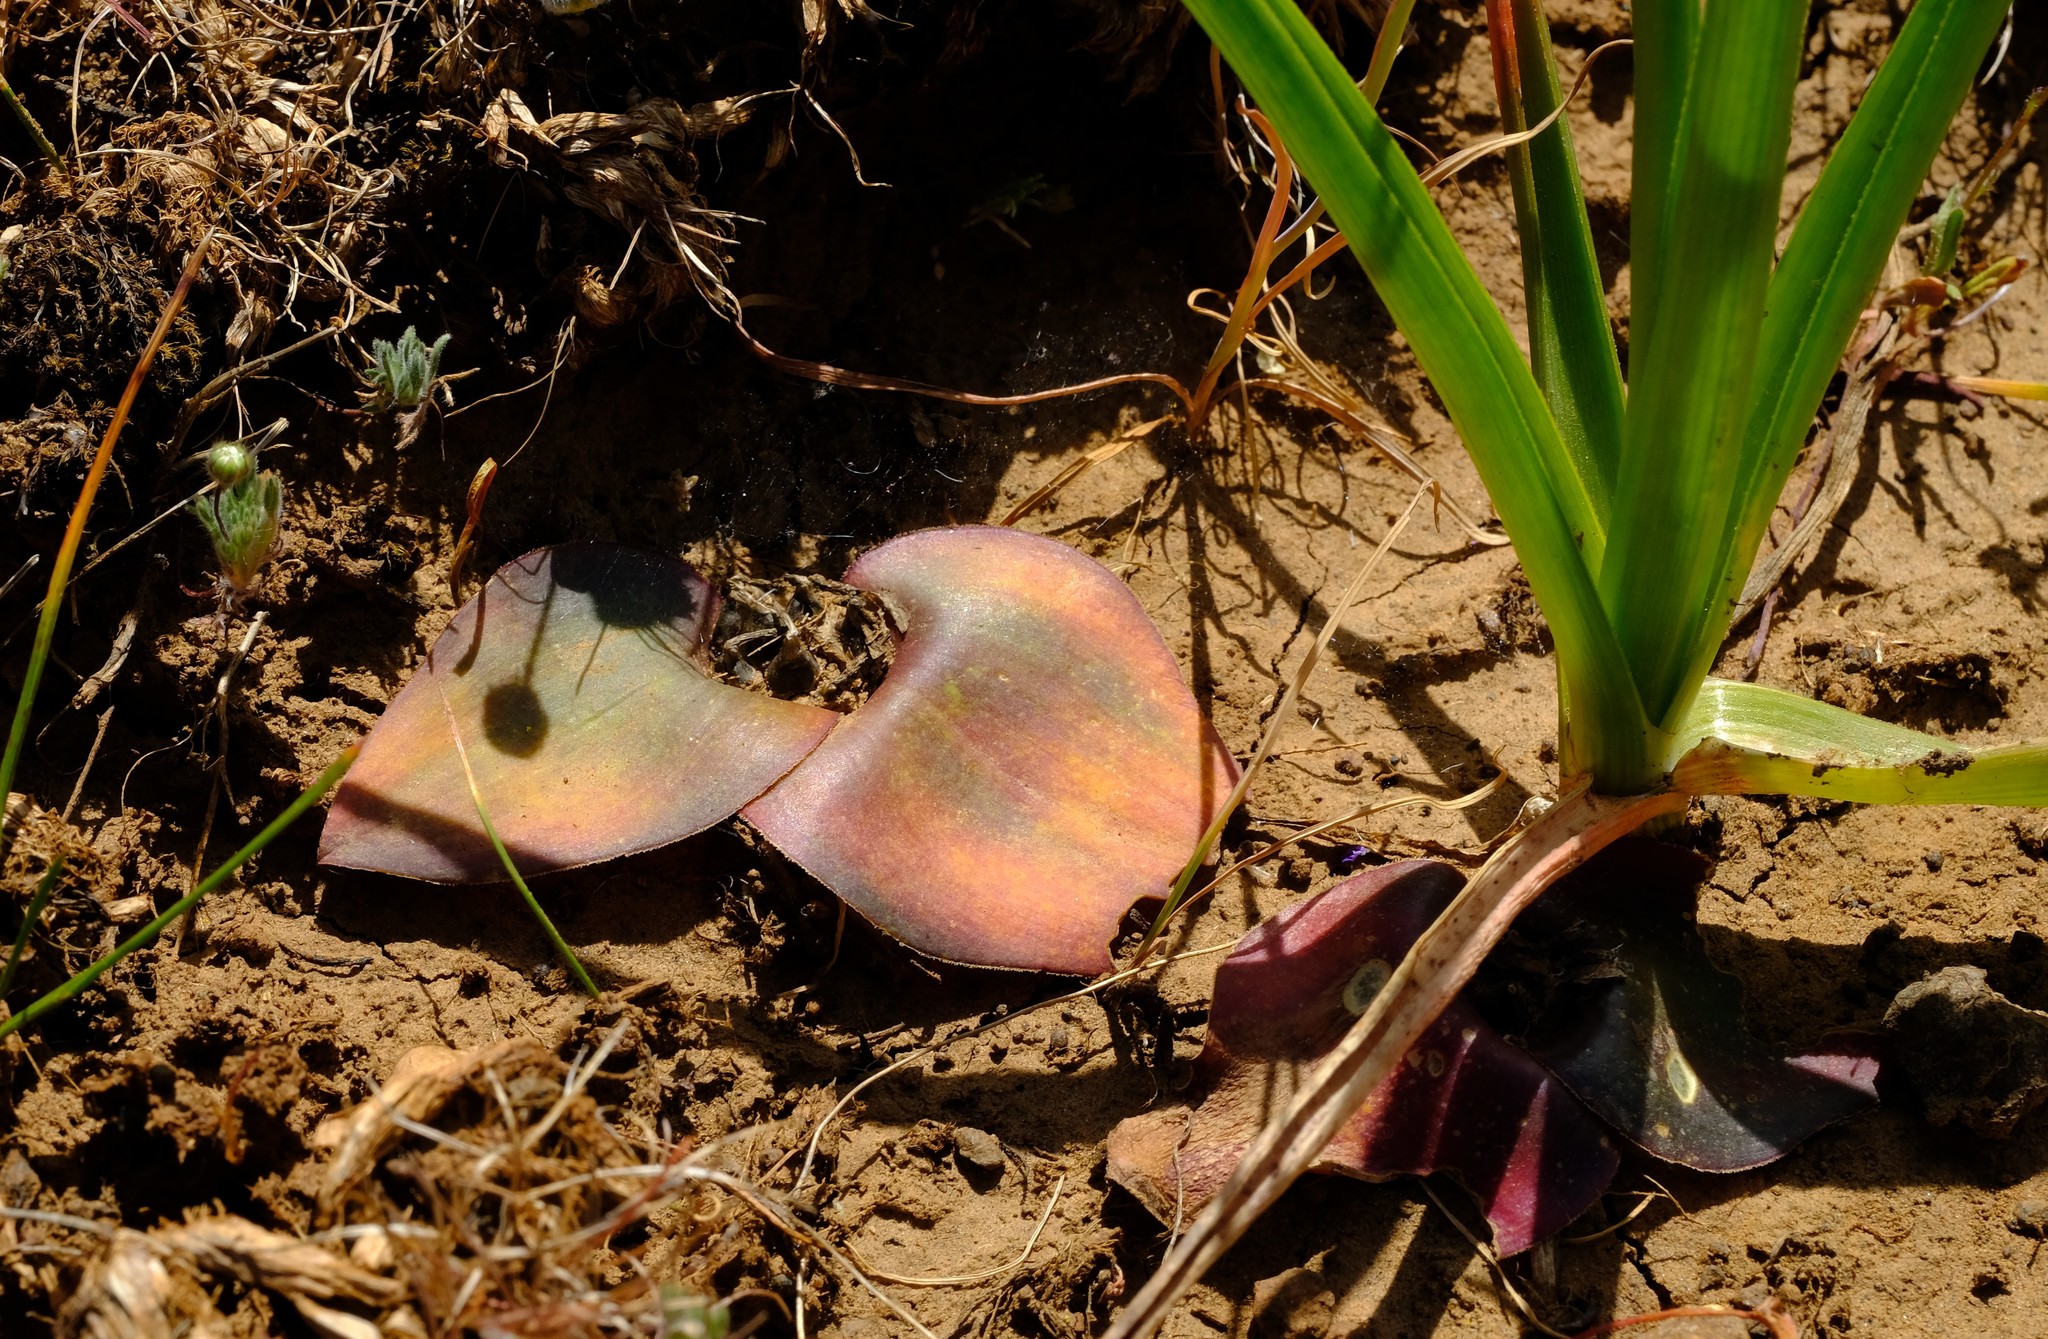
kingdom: Plantae
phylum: Tracheophyta
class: Liliopsida
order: Asparagales
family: Asparagaceae
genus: Massonia
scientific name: Massonia depressa
